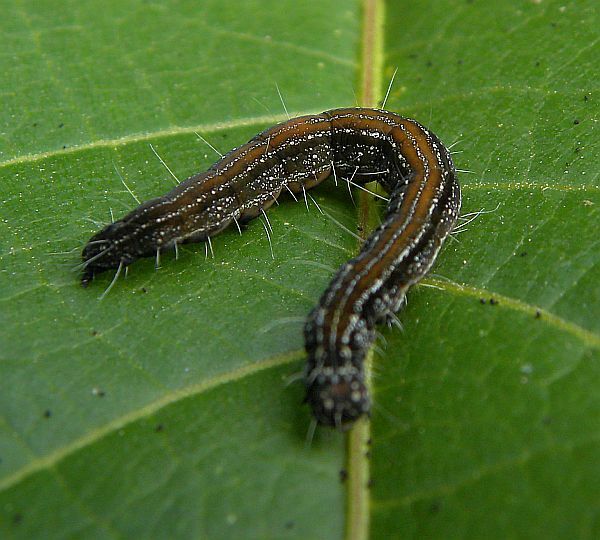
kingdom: Animalia
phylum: Arthropoda
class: Insecta
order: Lepidoptera
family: Attevidae
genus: Atteva
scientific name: Atteva punctella
